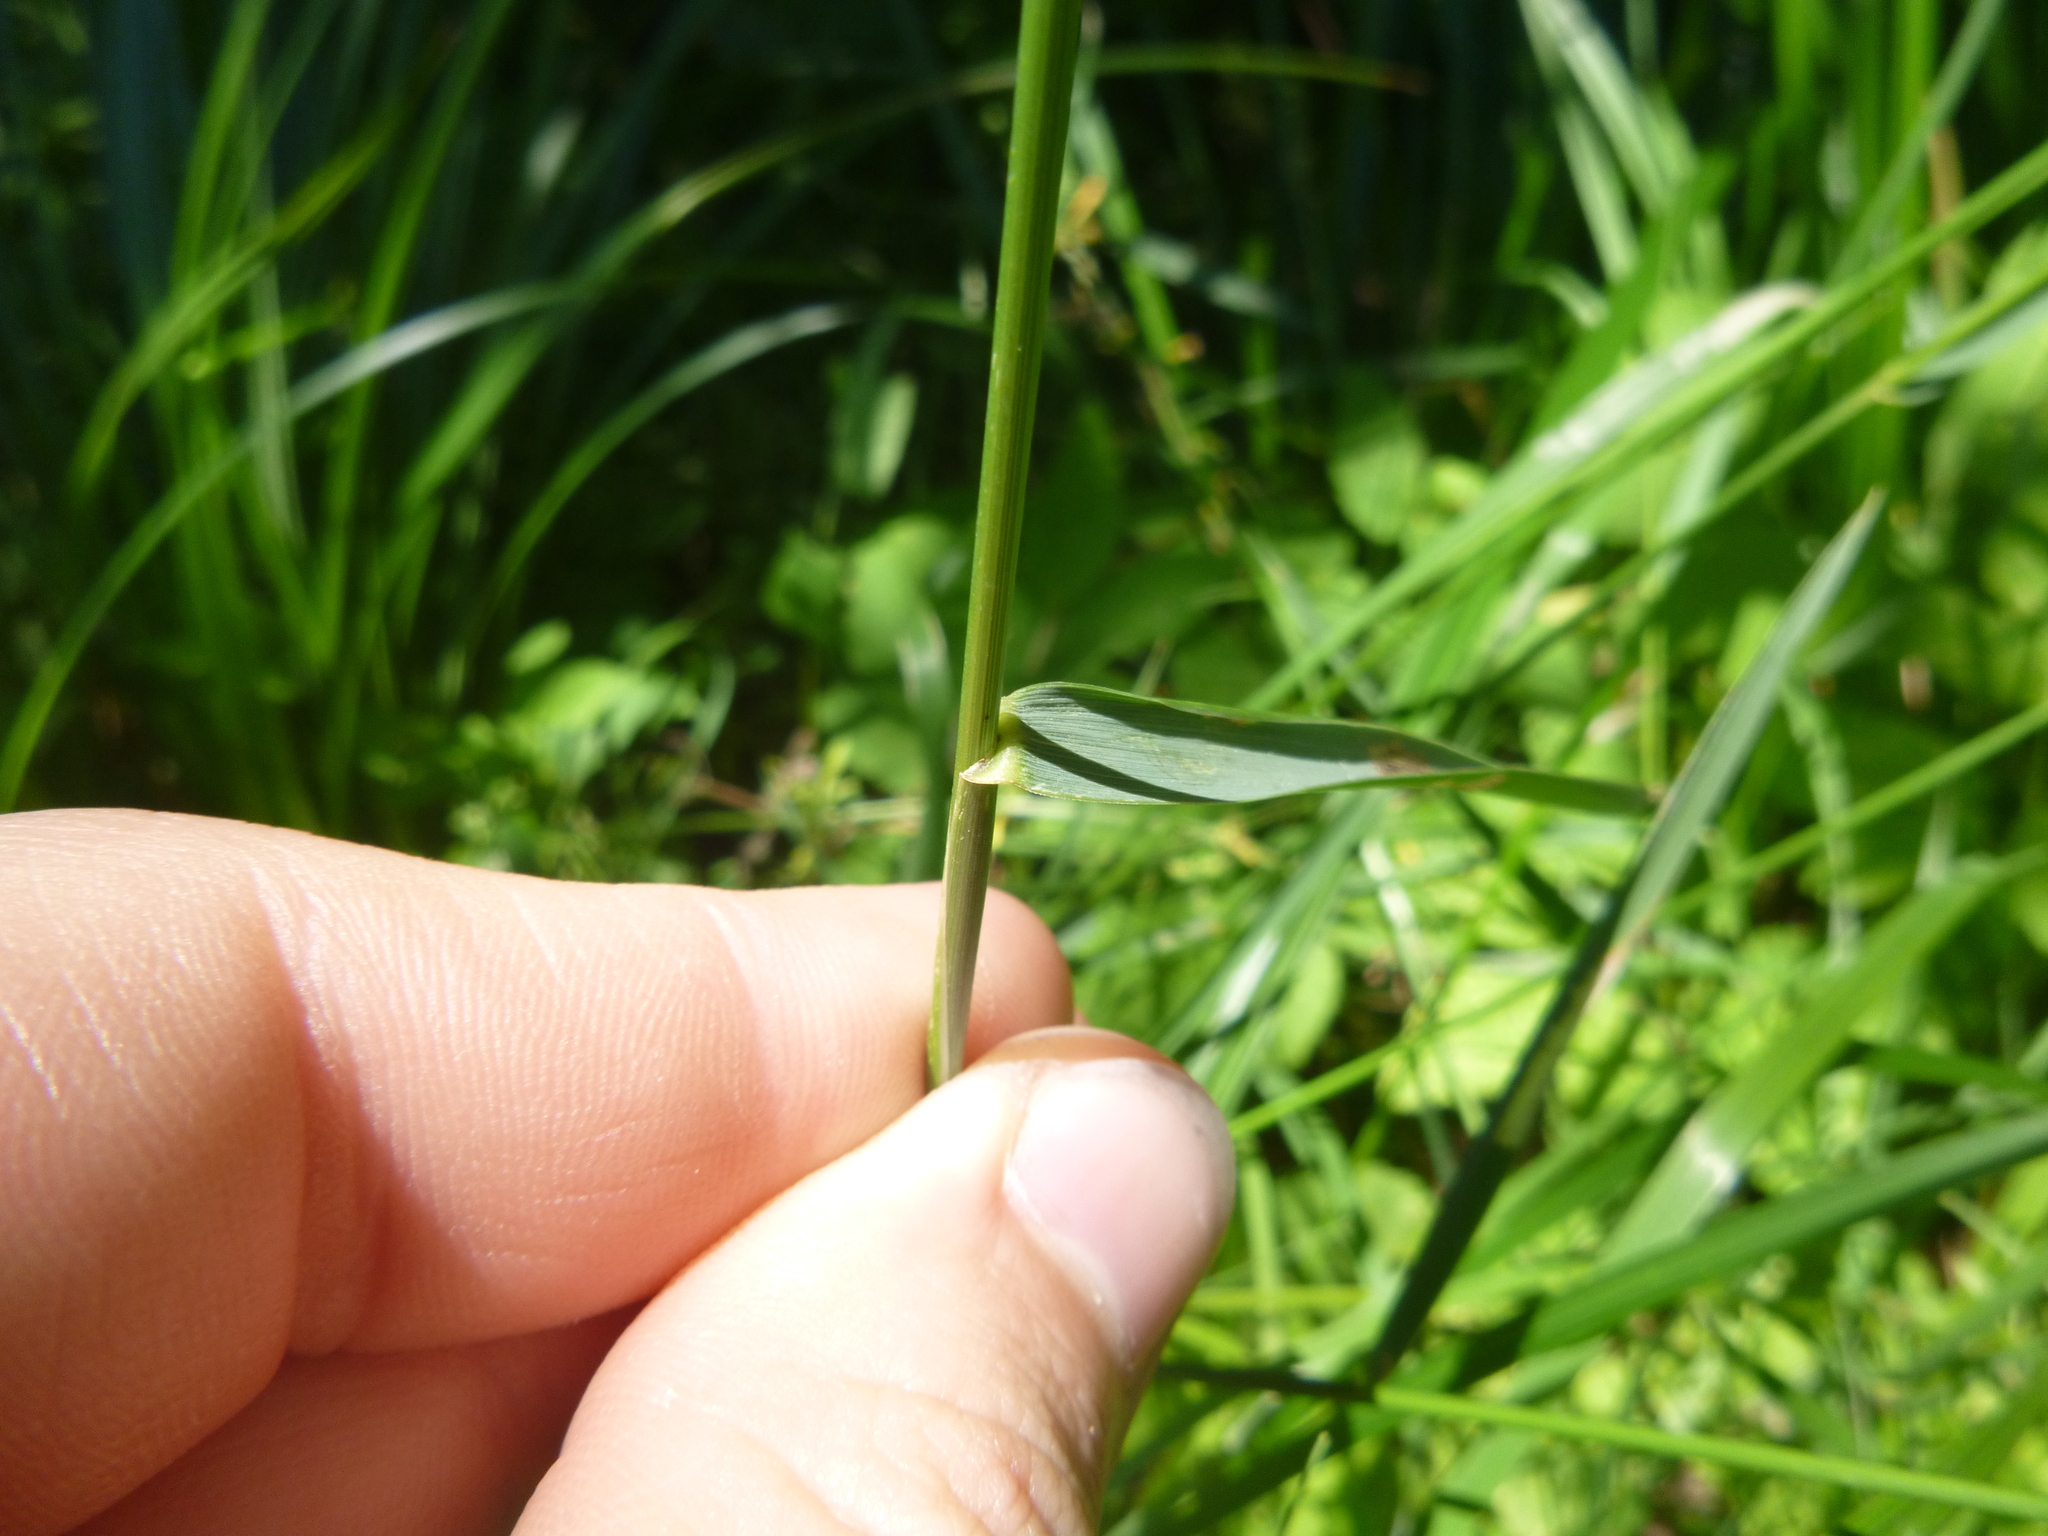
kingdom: Plantae
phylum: Tracheophyta
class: Liliopsida
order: Poales
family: Poaceae
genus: Elymus
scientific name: Elymus repens
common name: Quackgrass
